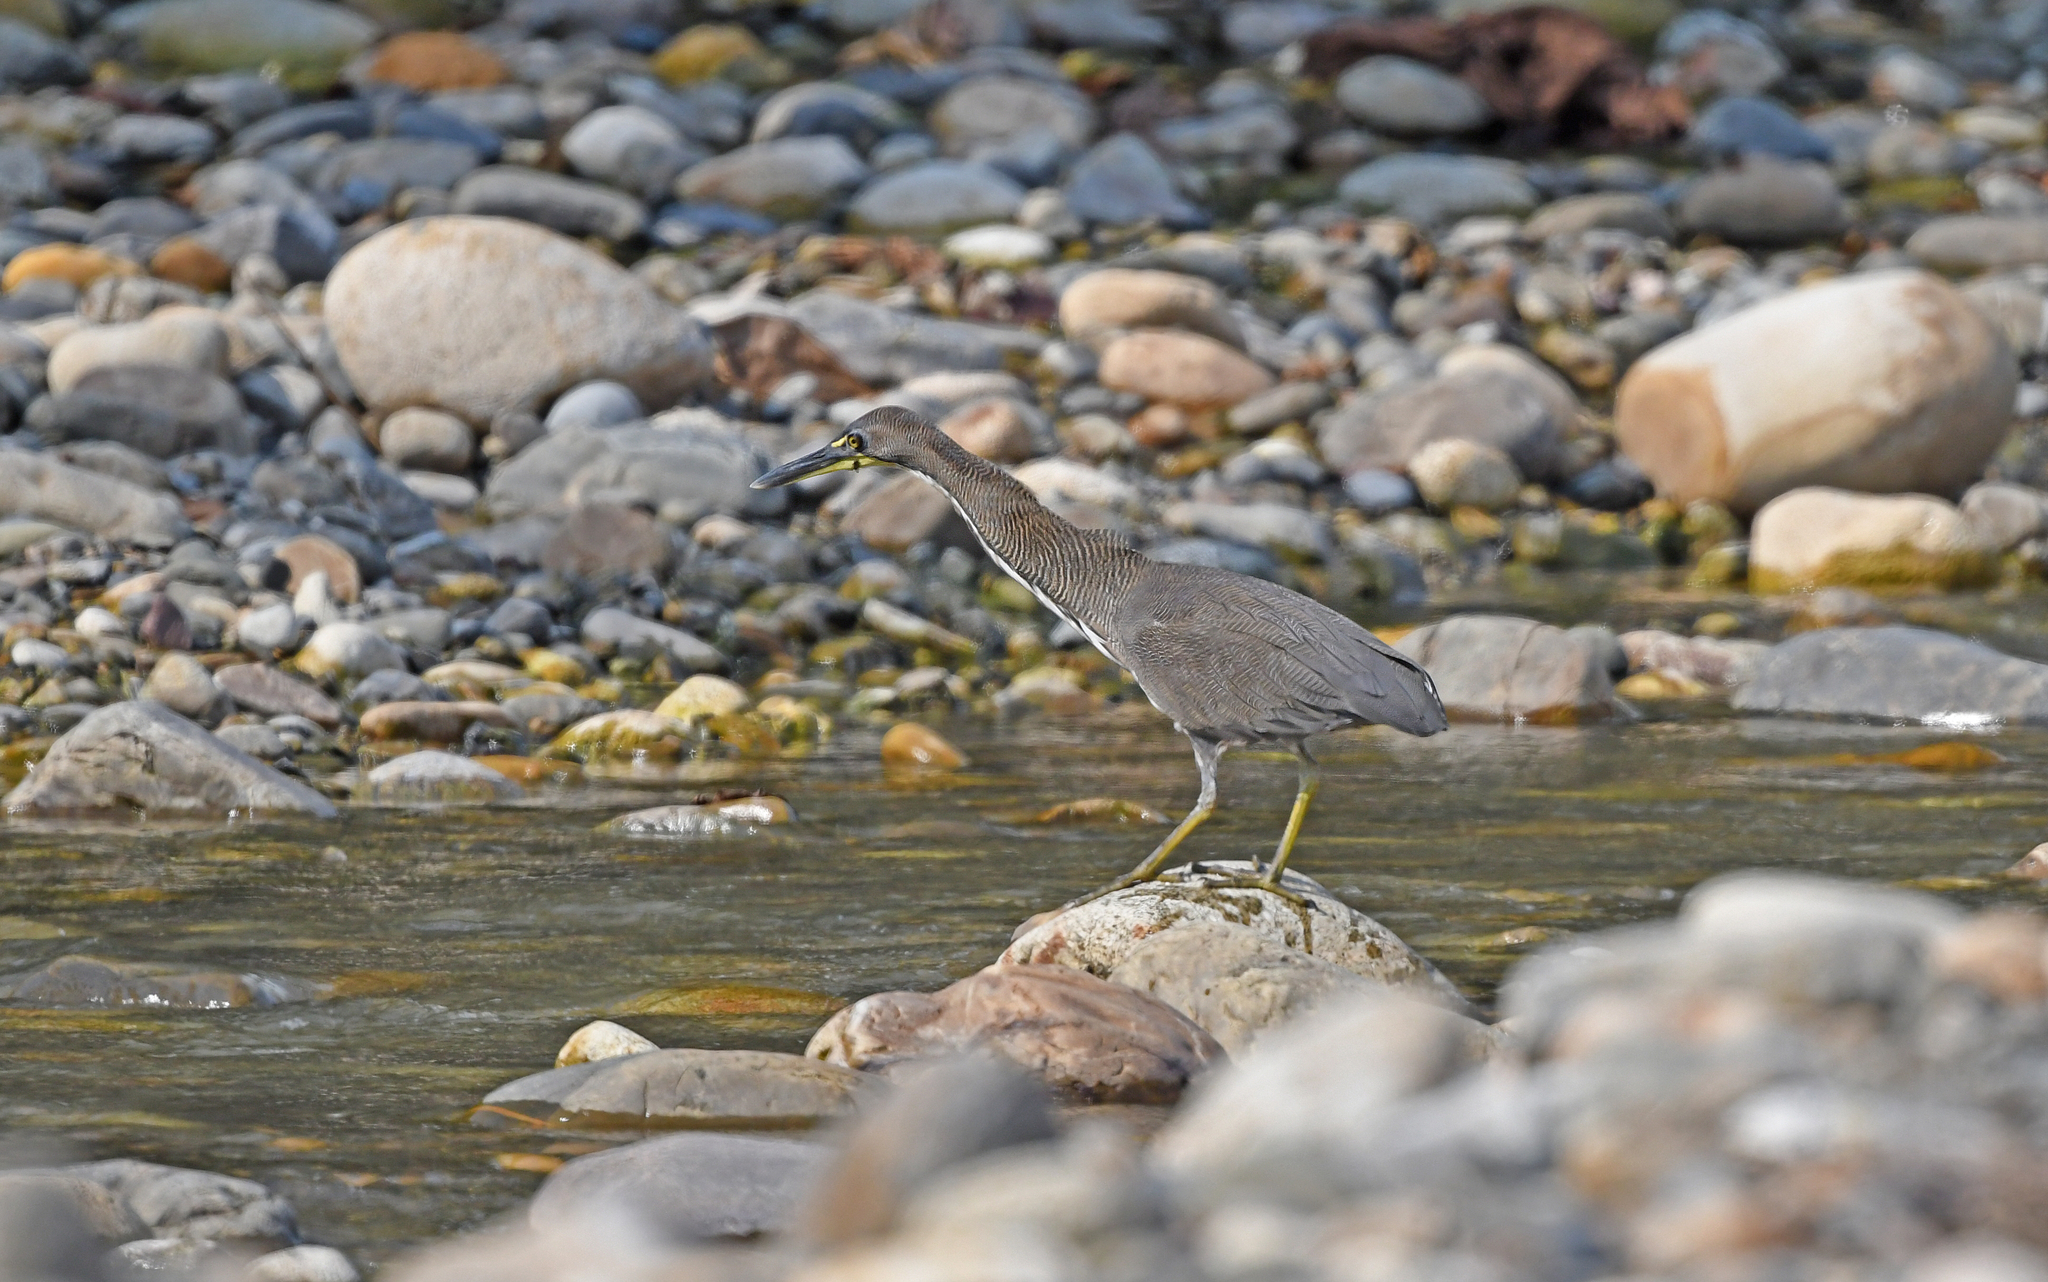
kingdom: Animalia
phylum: Chordata
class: Aves
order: Pelecaniformes
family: Ardeidae
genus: Tigrisoma
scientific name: Tigrisoma fasciatum
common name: Fasciated tiger-heron
